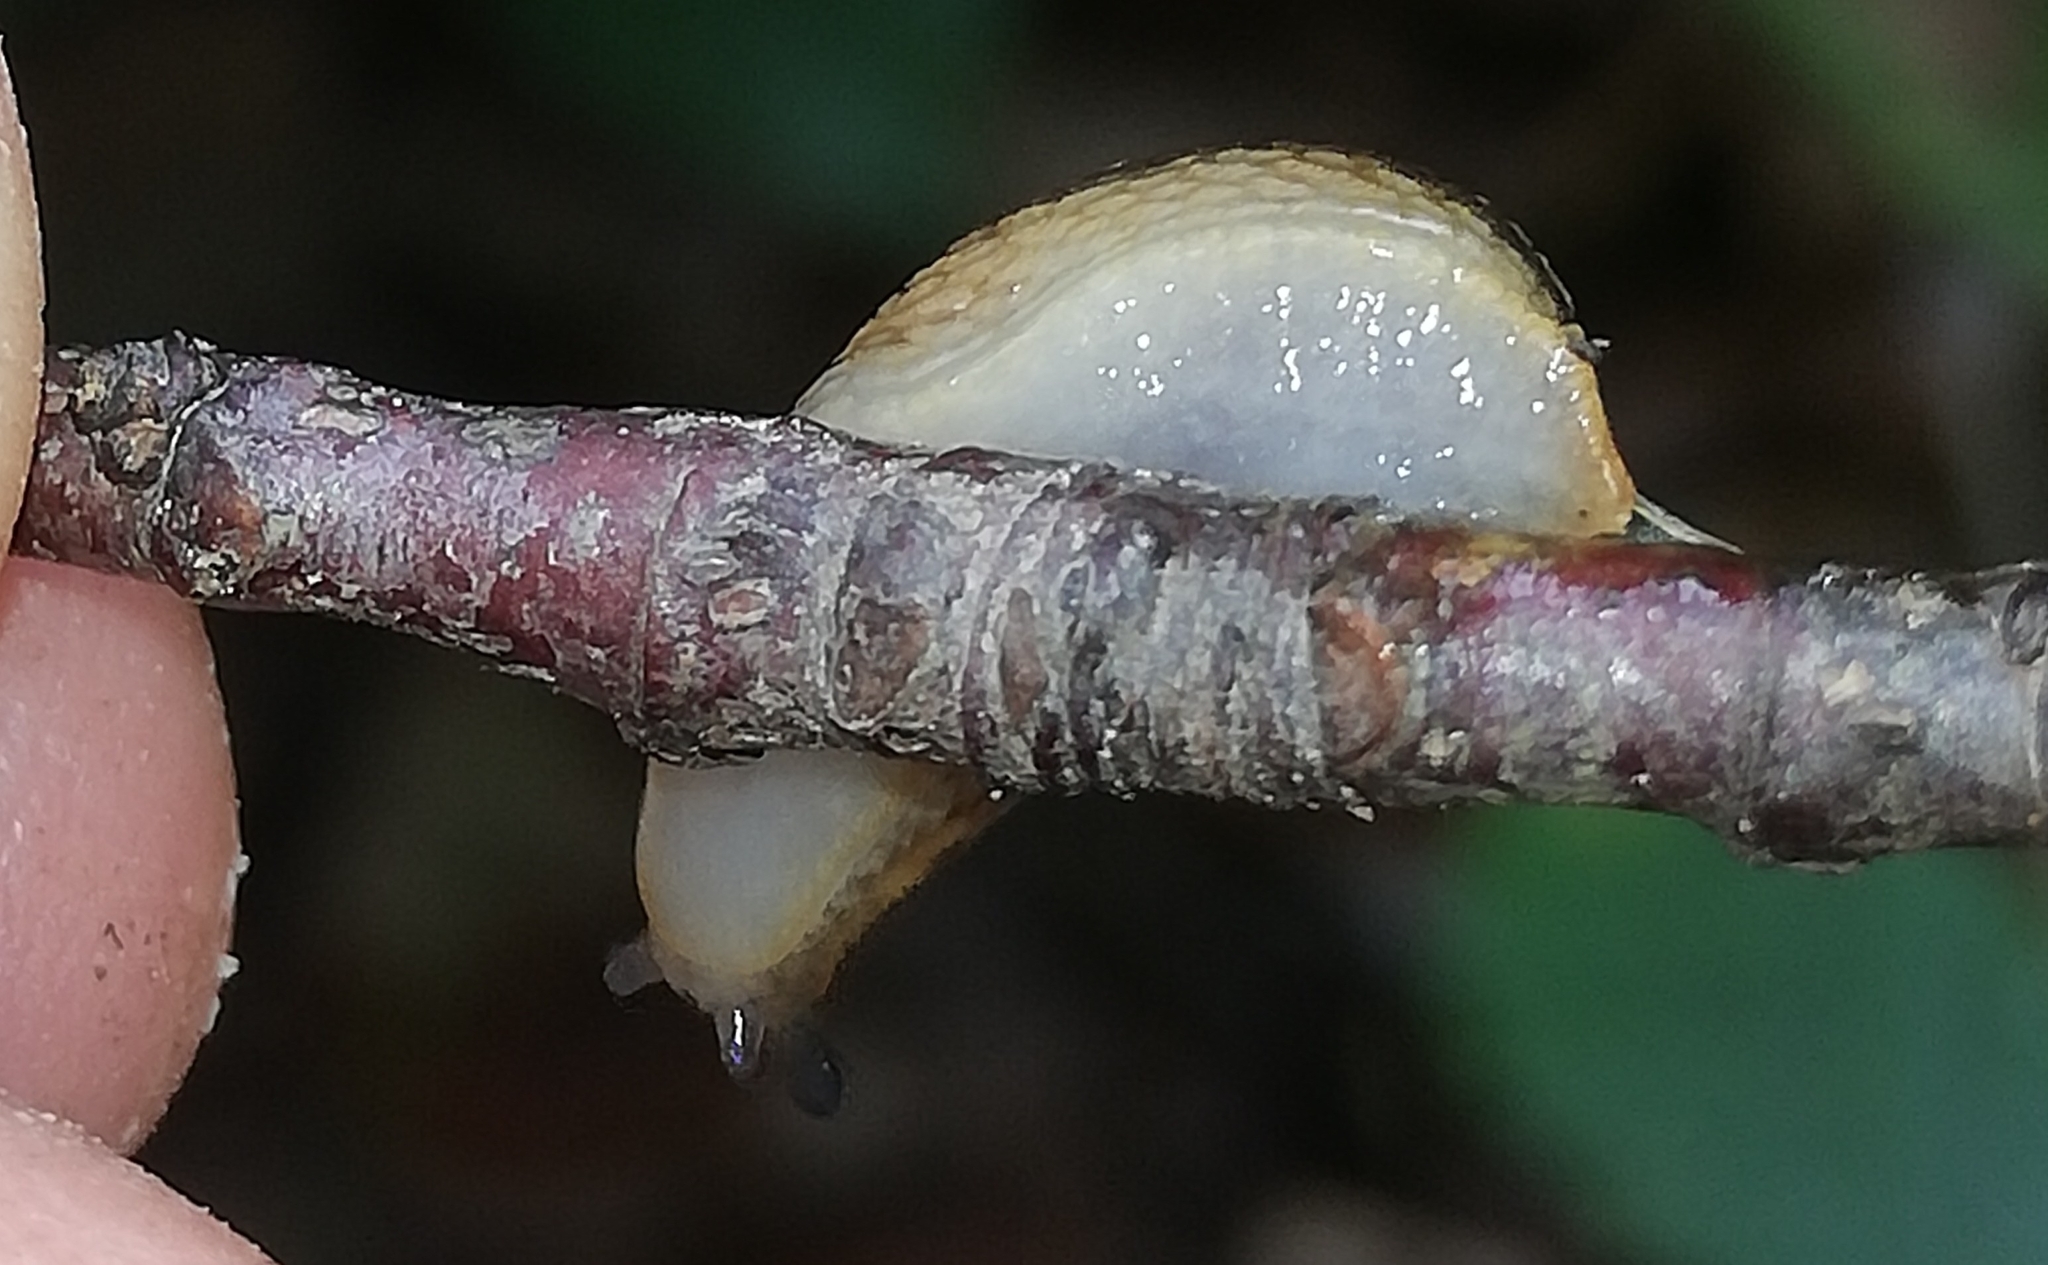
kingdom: Animalia
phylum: Mollusca
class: Gastropoda
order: Stylommatophora
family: Arionidae
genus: Arion
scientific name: Arion fuscus
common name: Northern dusky slug
